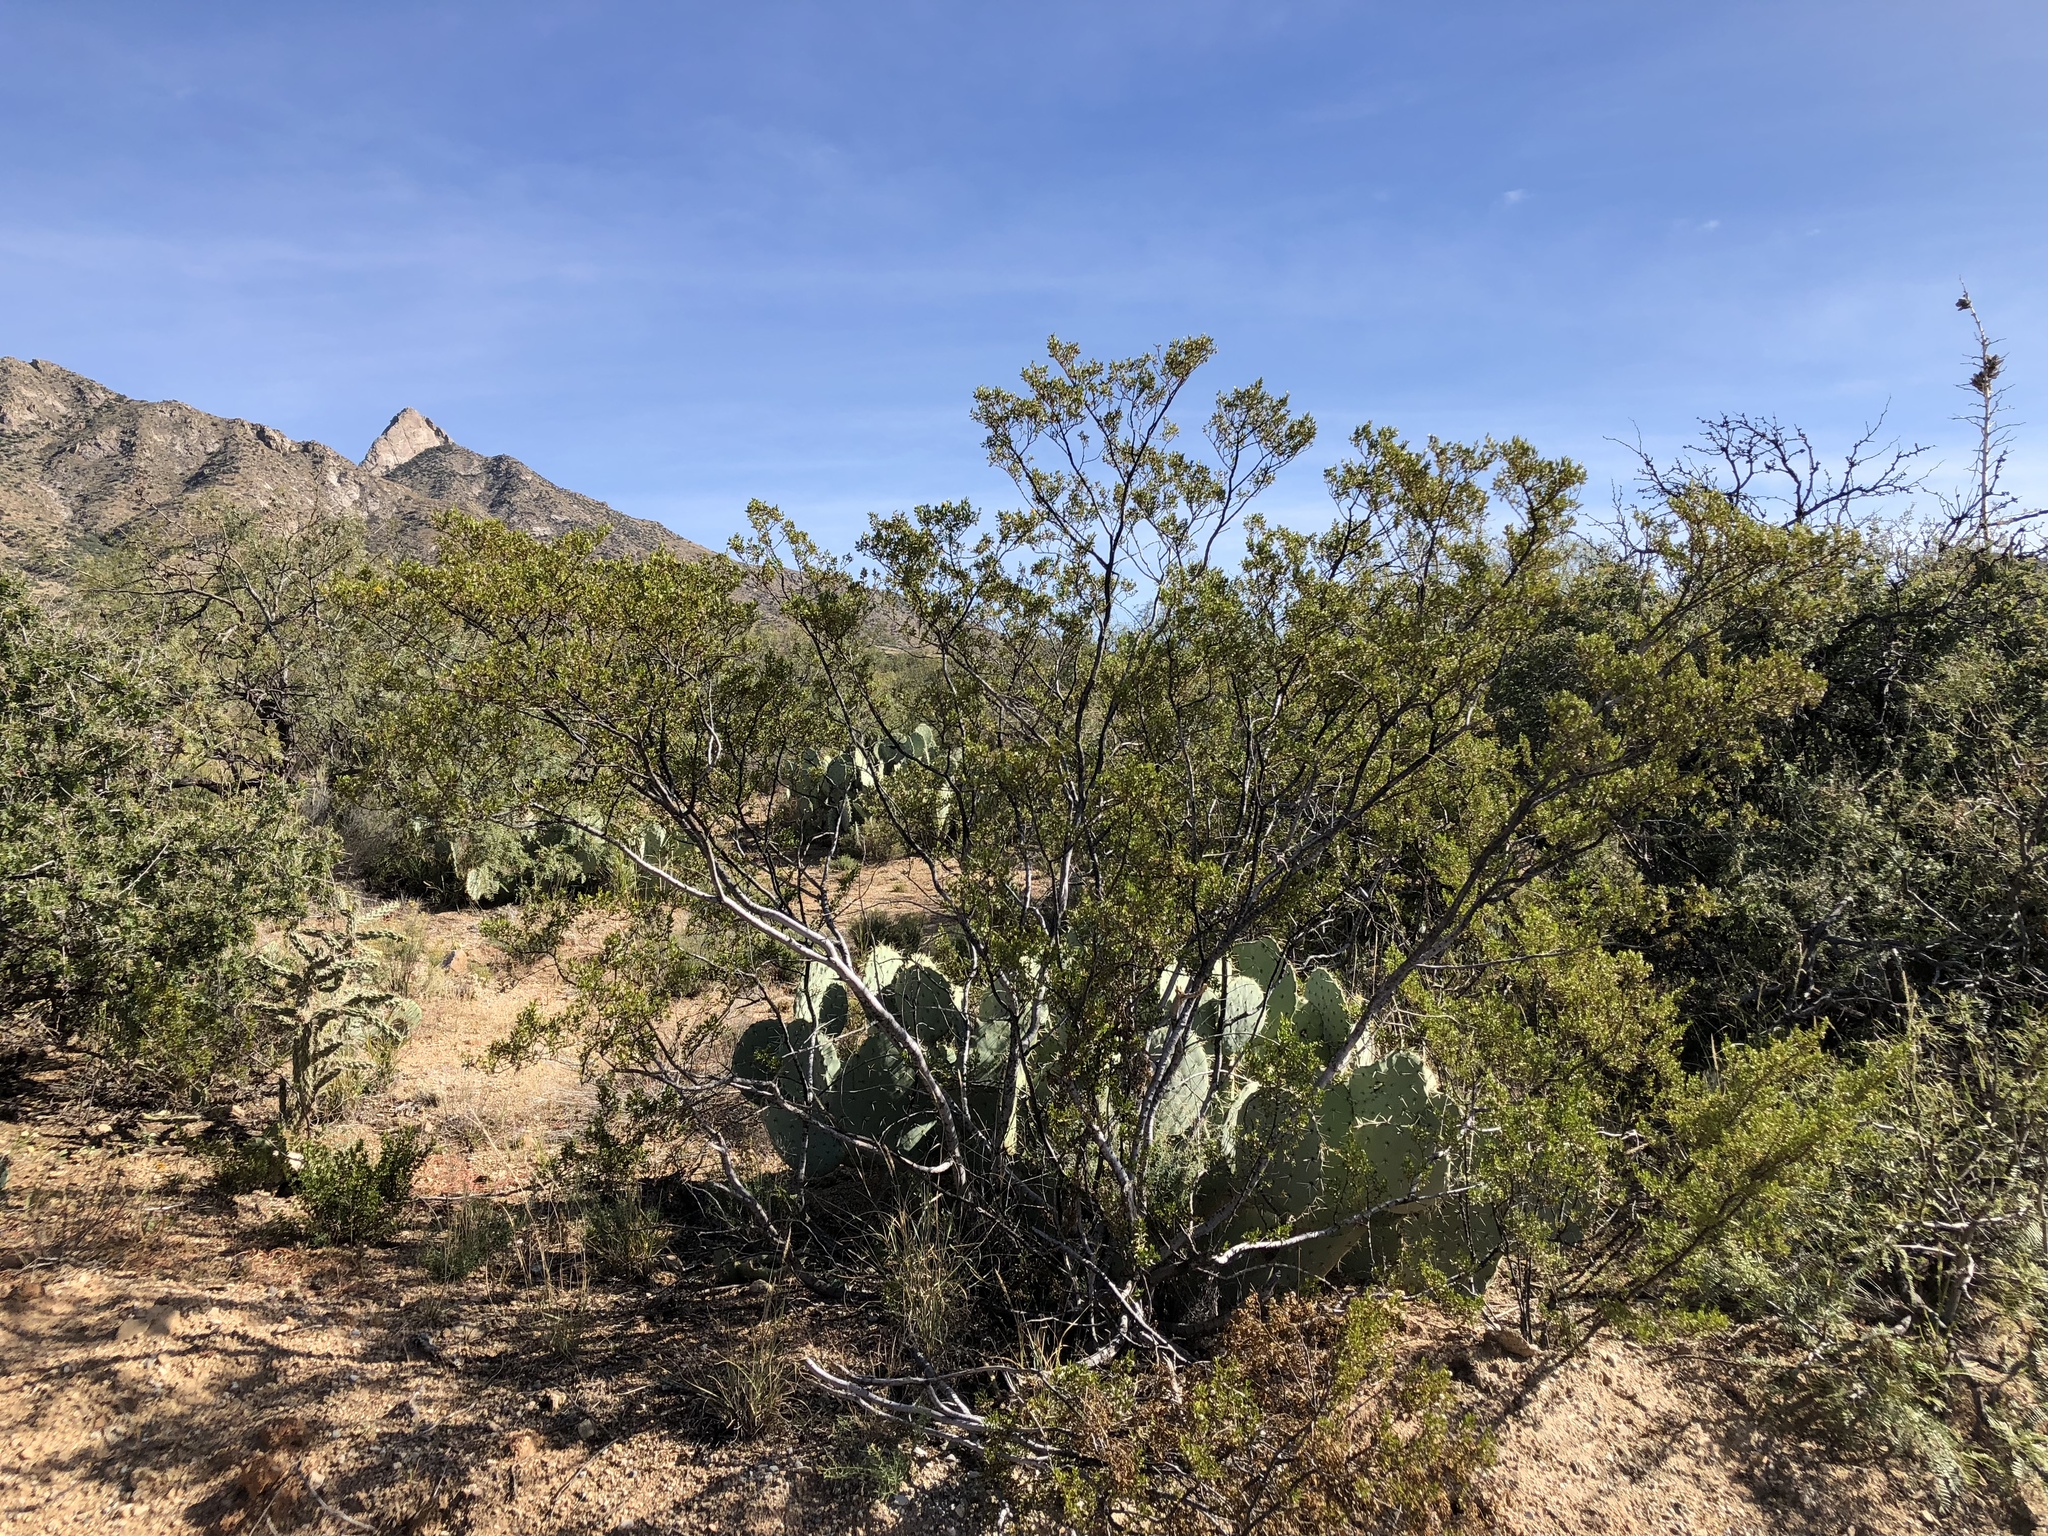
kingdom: Plantae
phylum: Tracheophyta
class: Magnoliopsida
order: Zygophyllales
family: Zygophyllaceae
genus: Larrea
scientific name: Larrea tridentata
